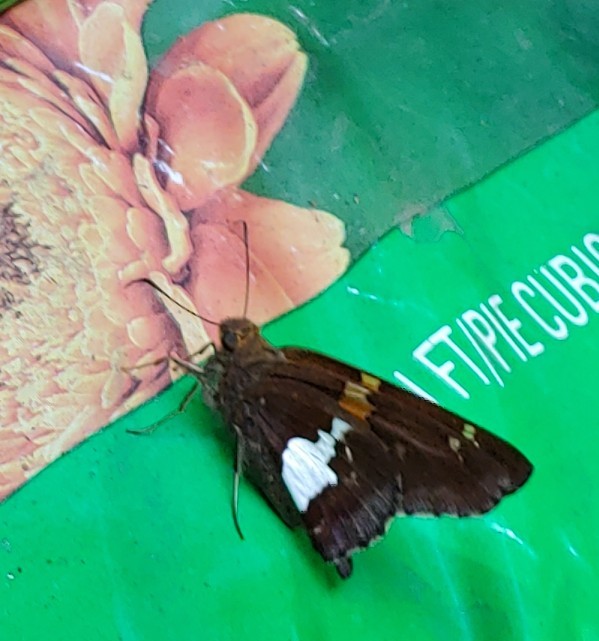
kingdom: Animalia
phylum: Arthropoda
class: Insecta
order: Lepidoptera
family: Hesperiidae
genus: Epargyreus
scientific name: Epargyreus clarus
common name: Silver-spotted skipper
